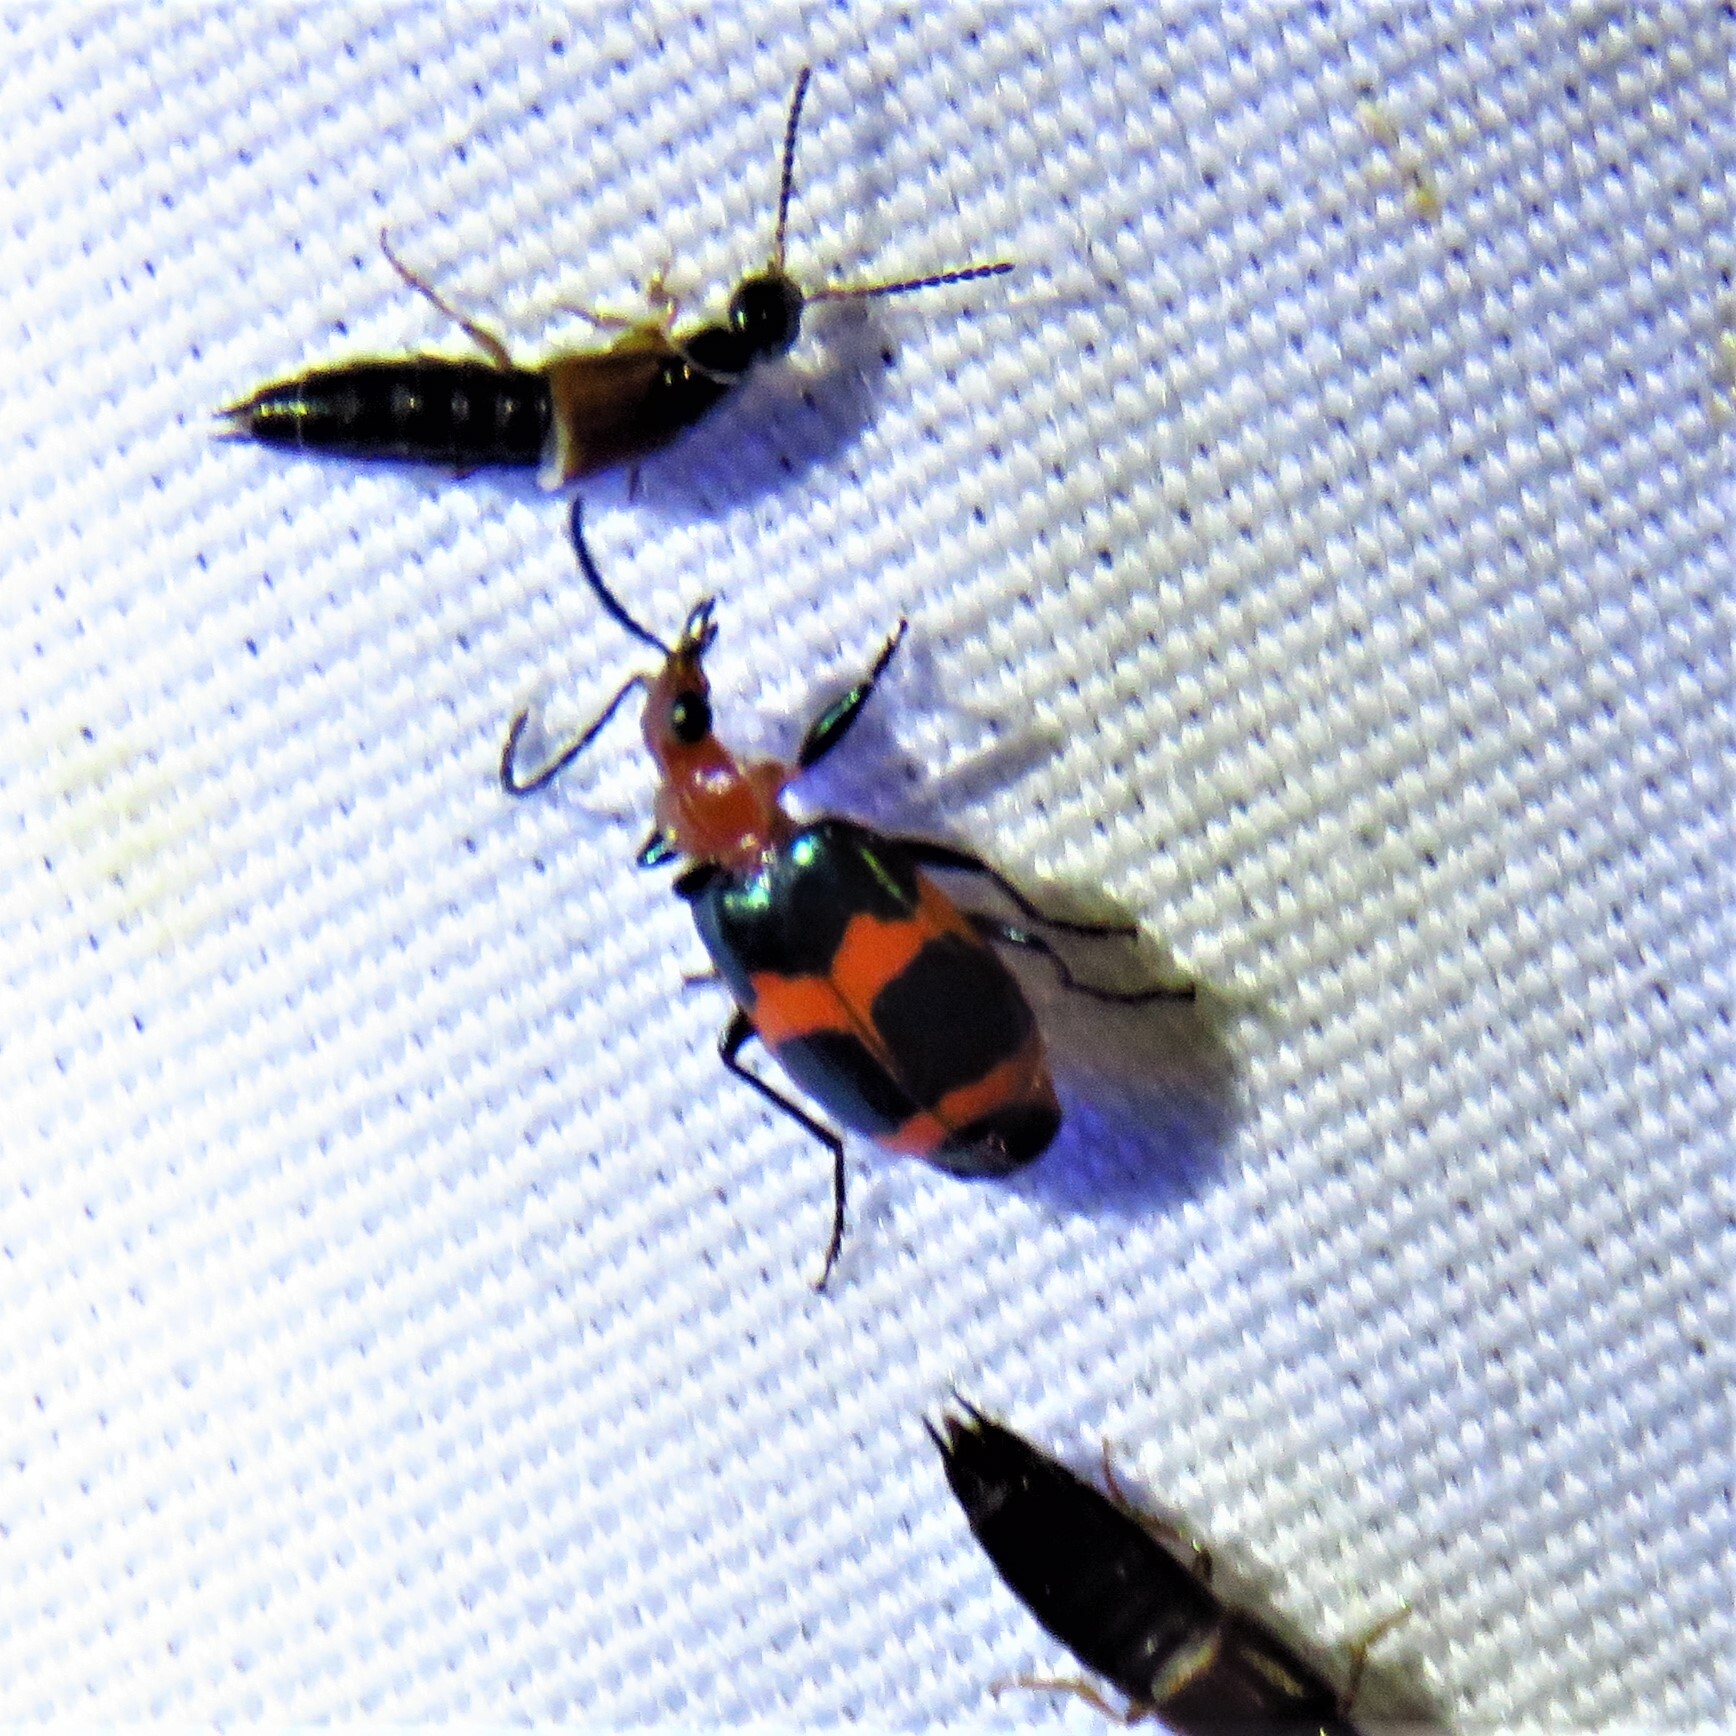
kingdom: Animalia
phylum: Arthropoda
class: Insecta
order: Coleoptera
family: Carabidae
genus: Lebia
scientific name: Lebia bitaeniata
